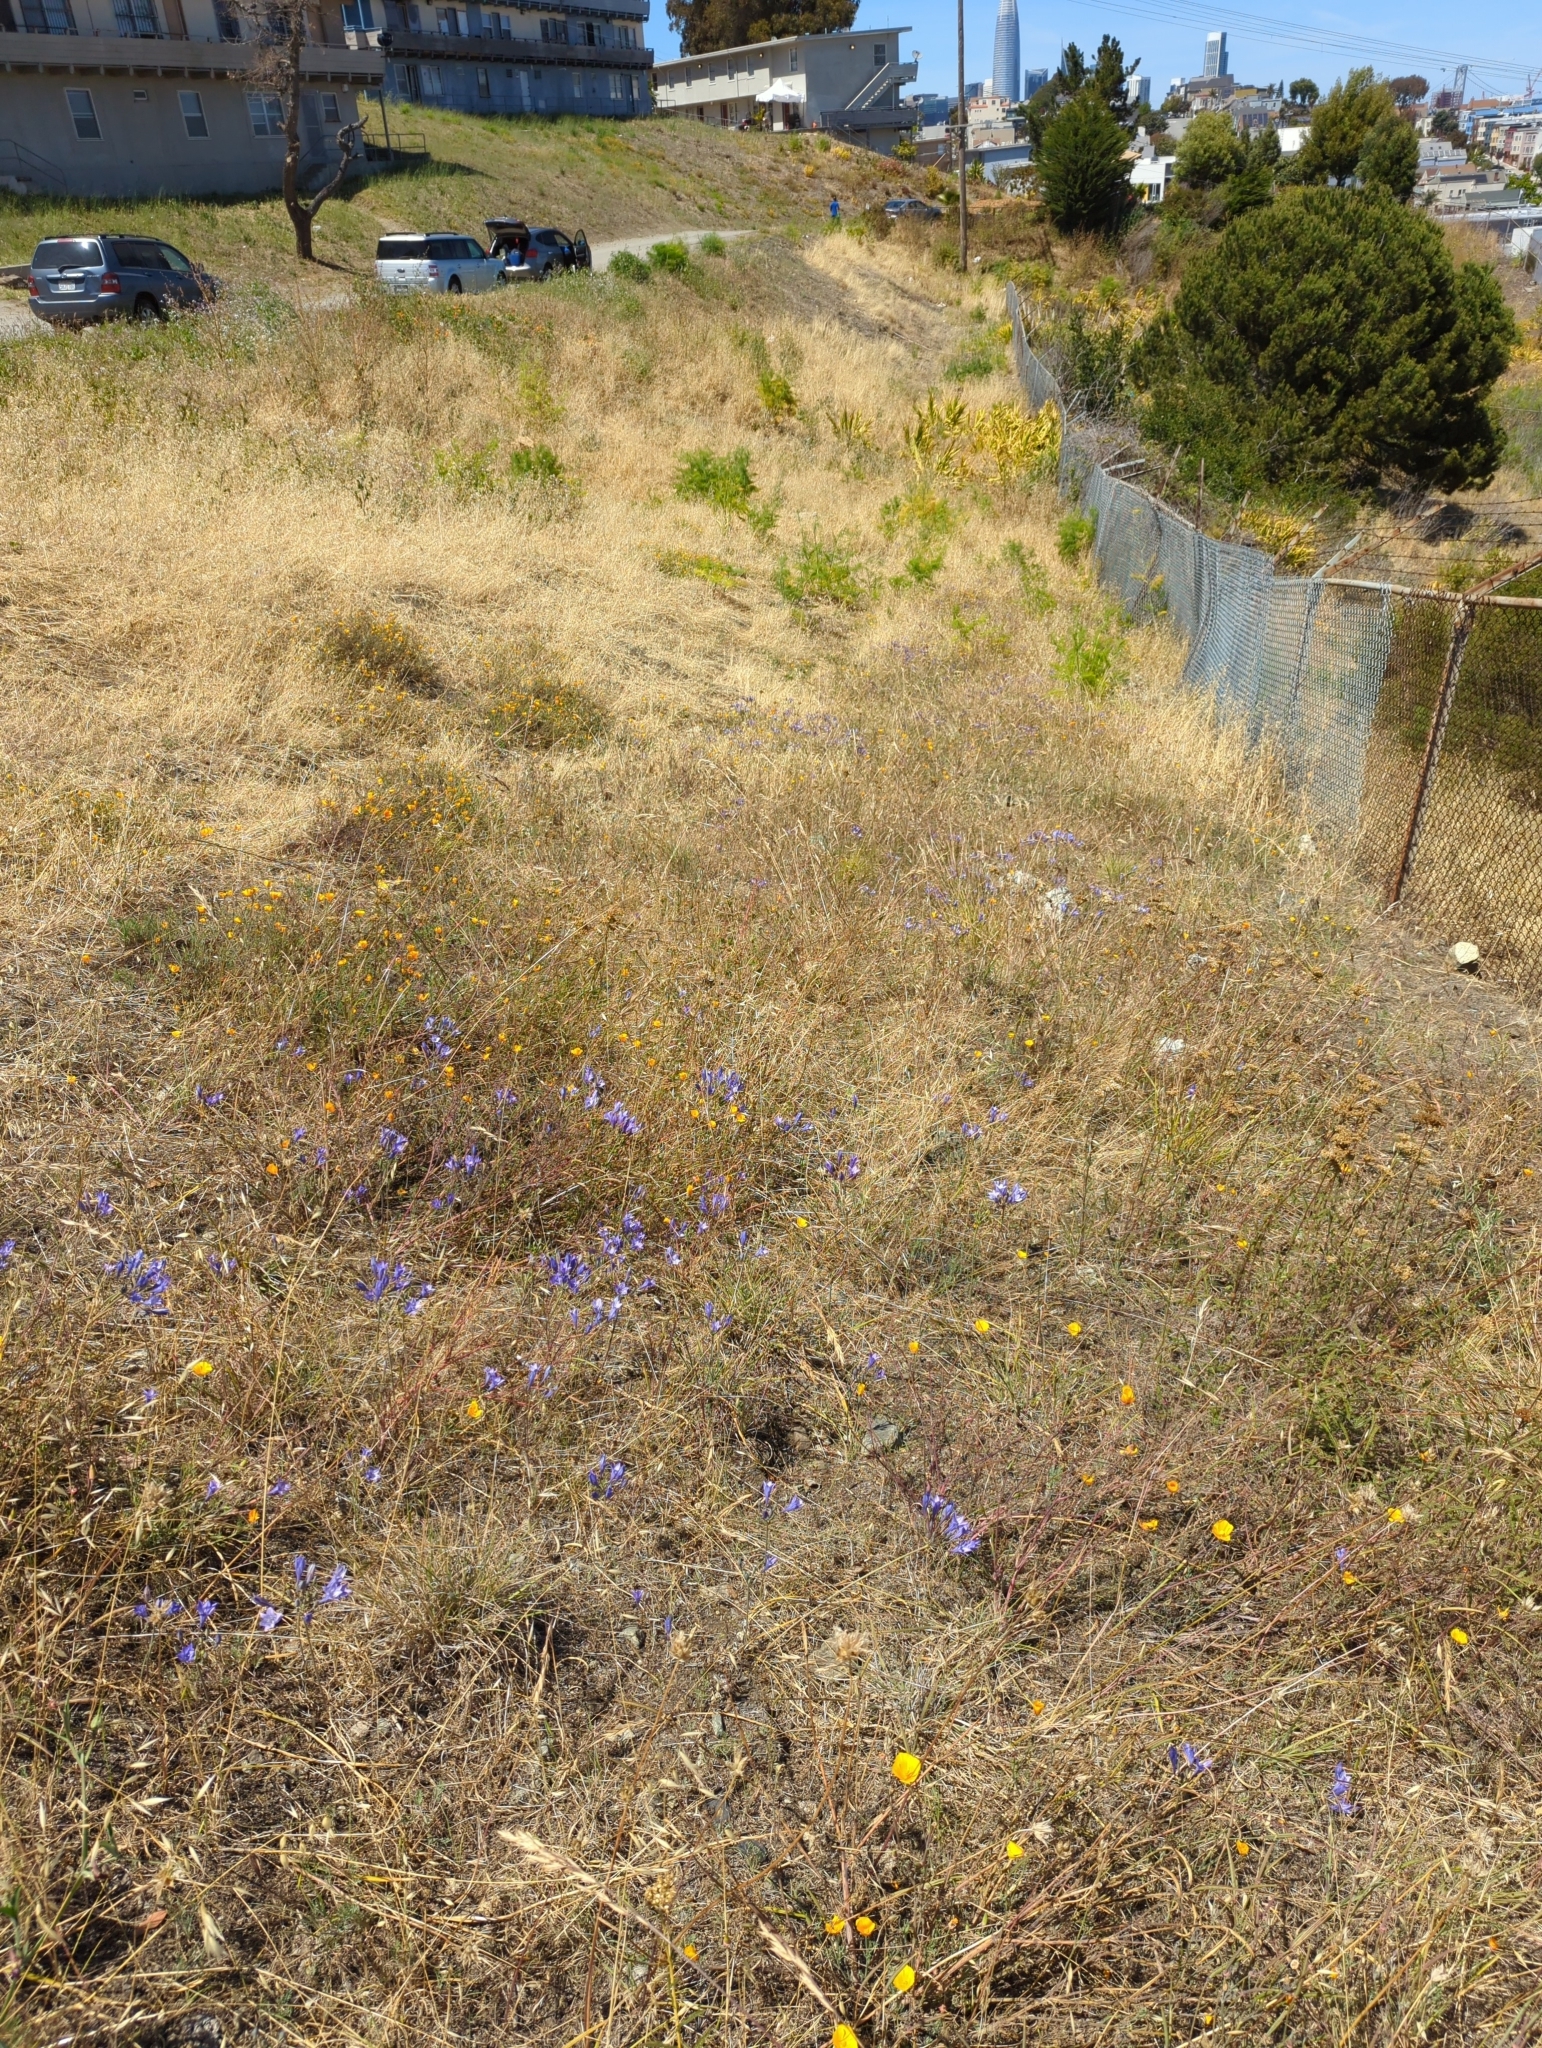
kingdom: Plantae
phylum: Tracheophyta
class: Liliopsida
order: Asparagales
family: Asparagaceae
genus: Triteleia
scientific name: Triteleia laxa
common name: Triplet-lily
